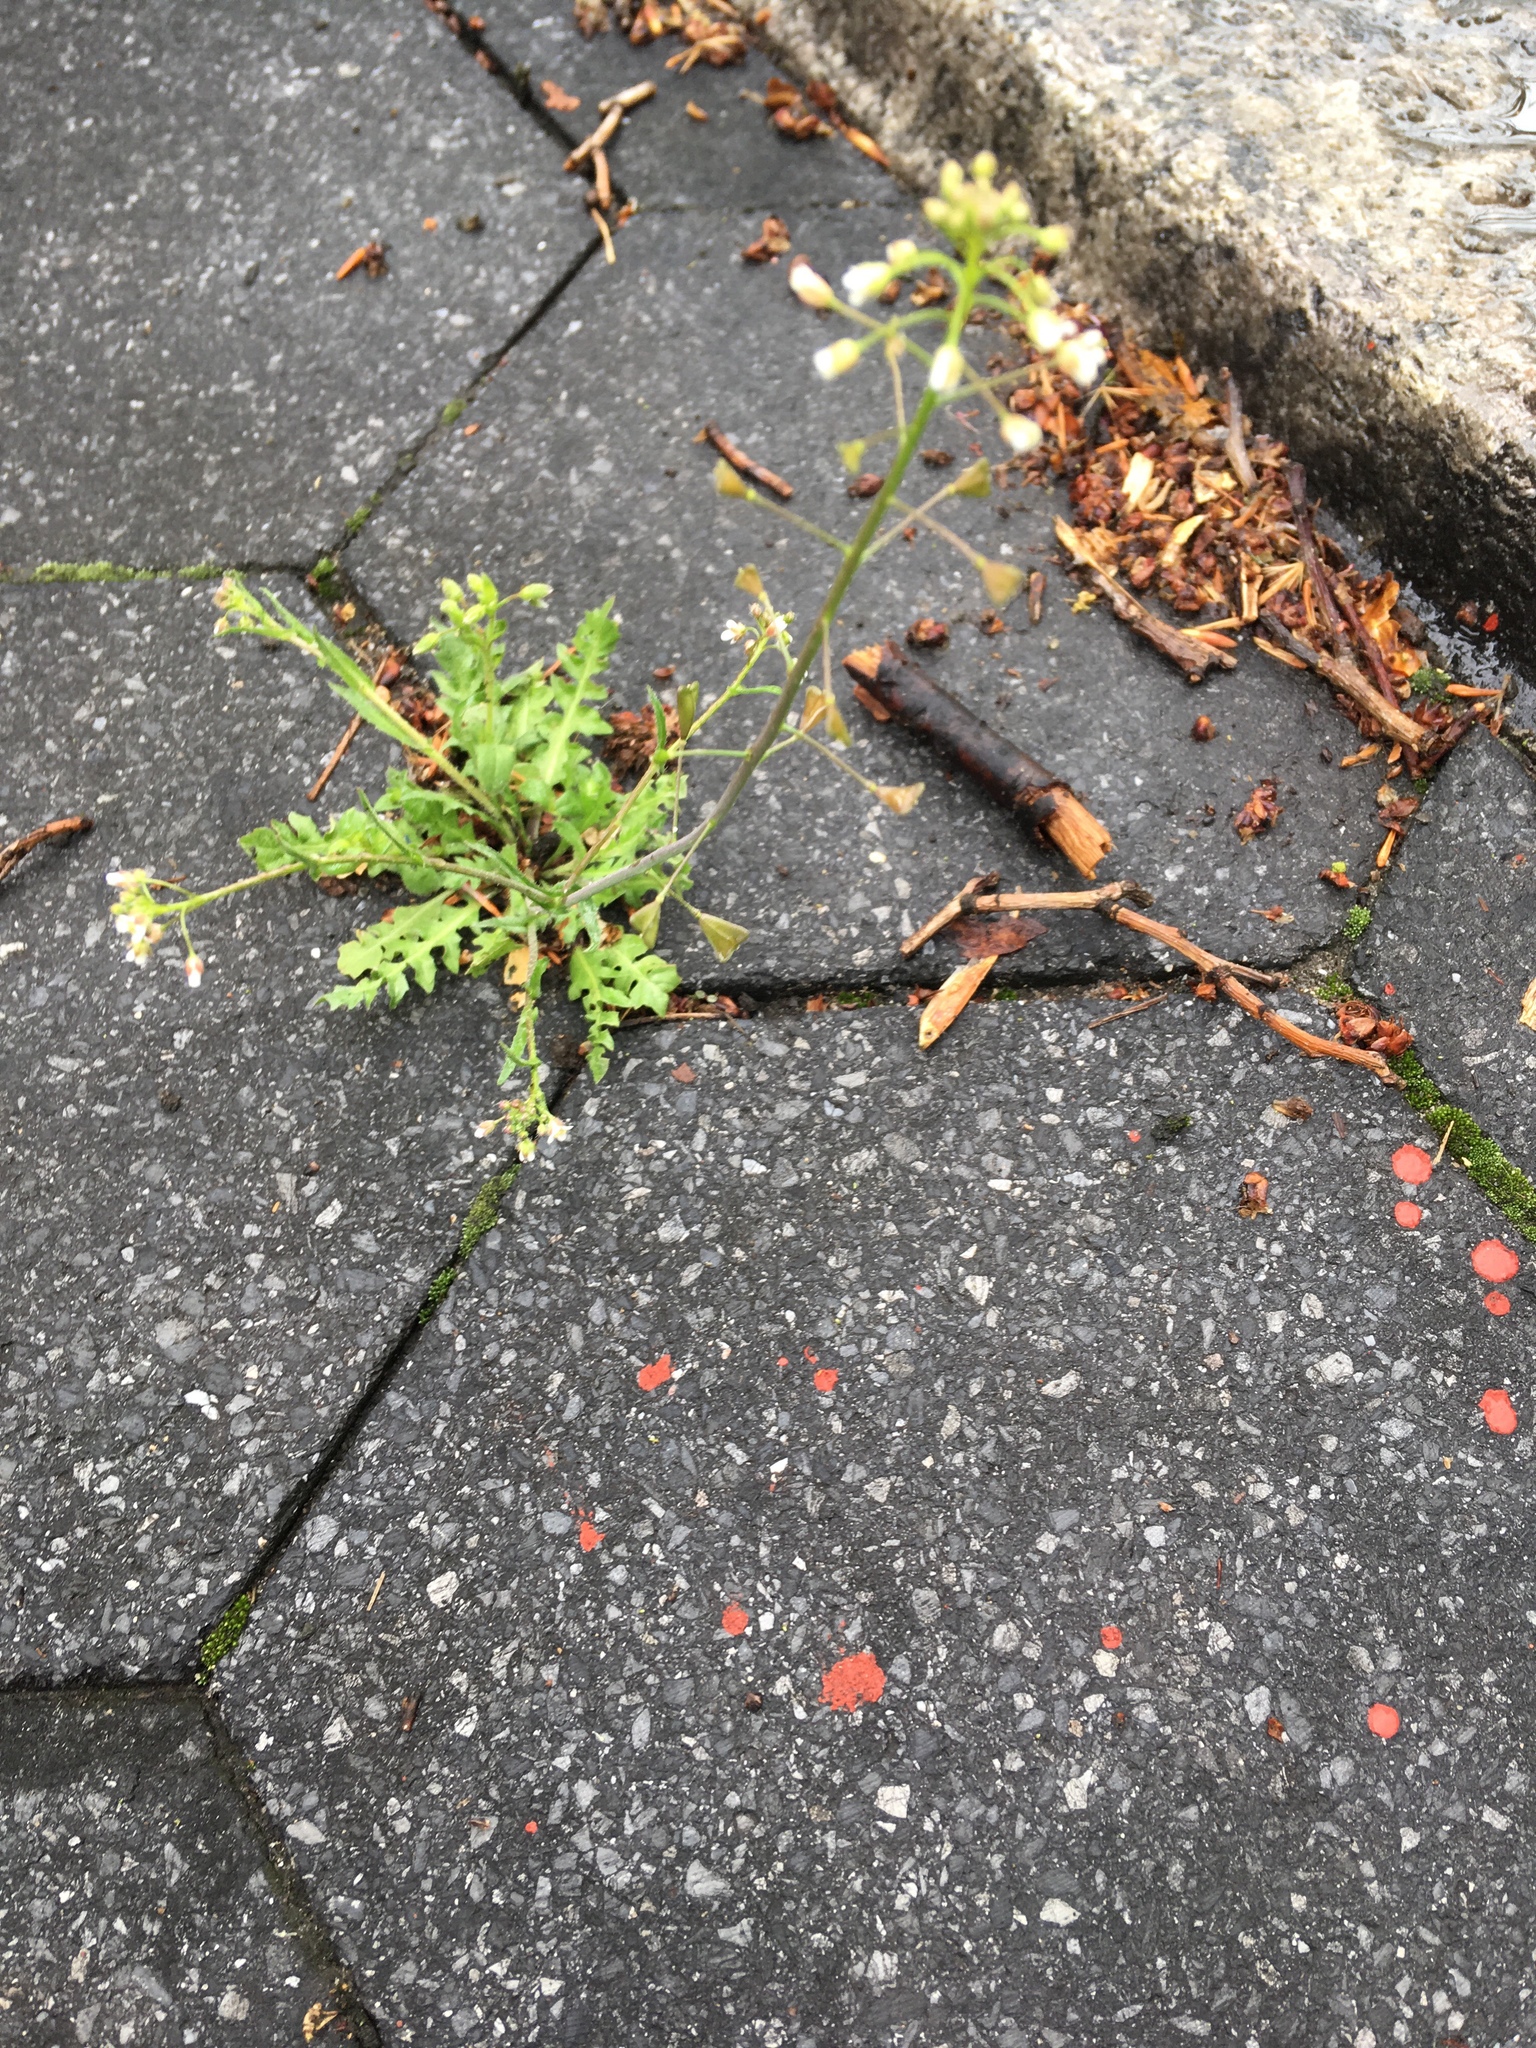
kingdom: Plantae
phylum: Tracheophyta
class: Magnoliopsida
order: Brassicales
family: Brassicaceae
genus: Capsella
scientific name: Capsella bursa-pastoris
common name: Shepherd's purse
